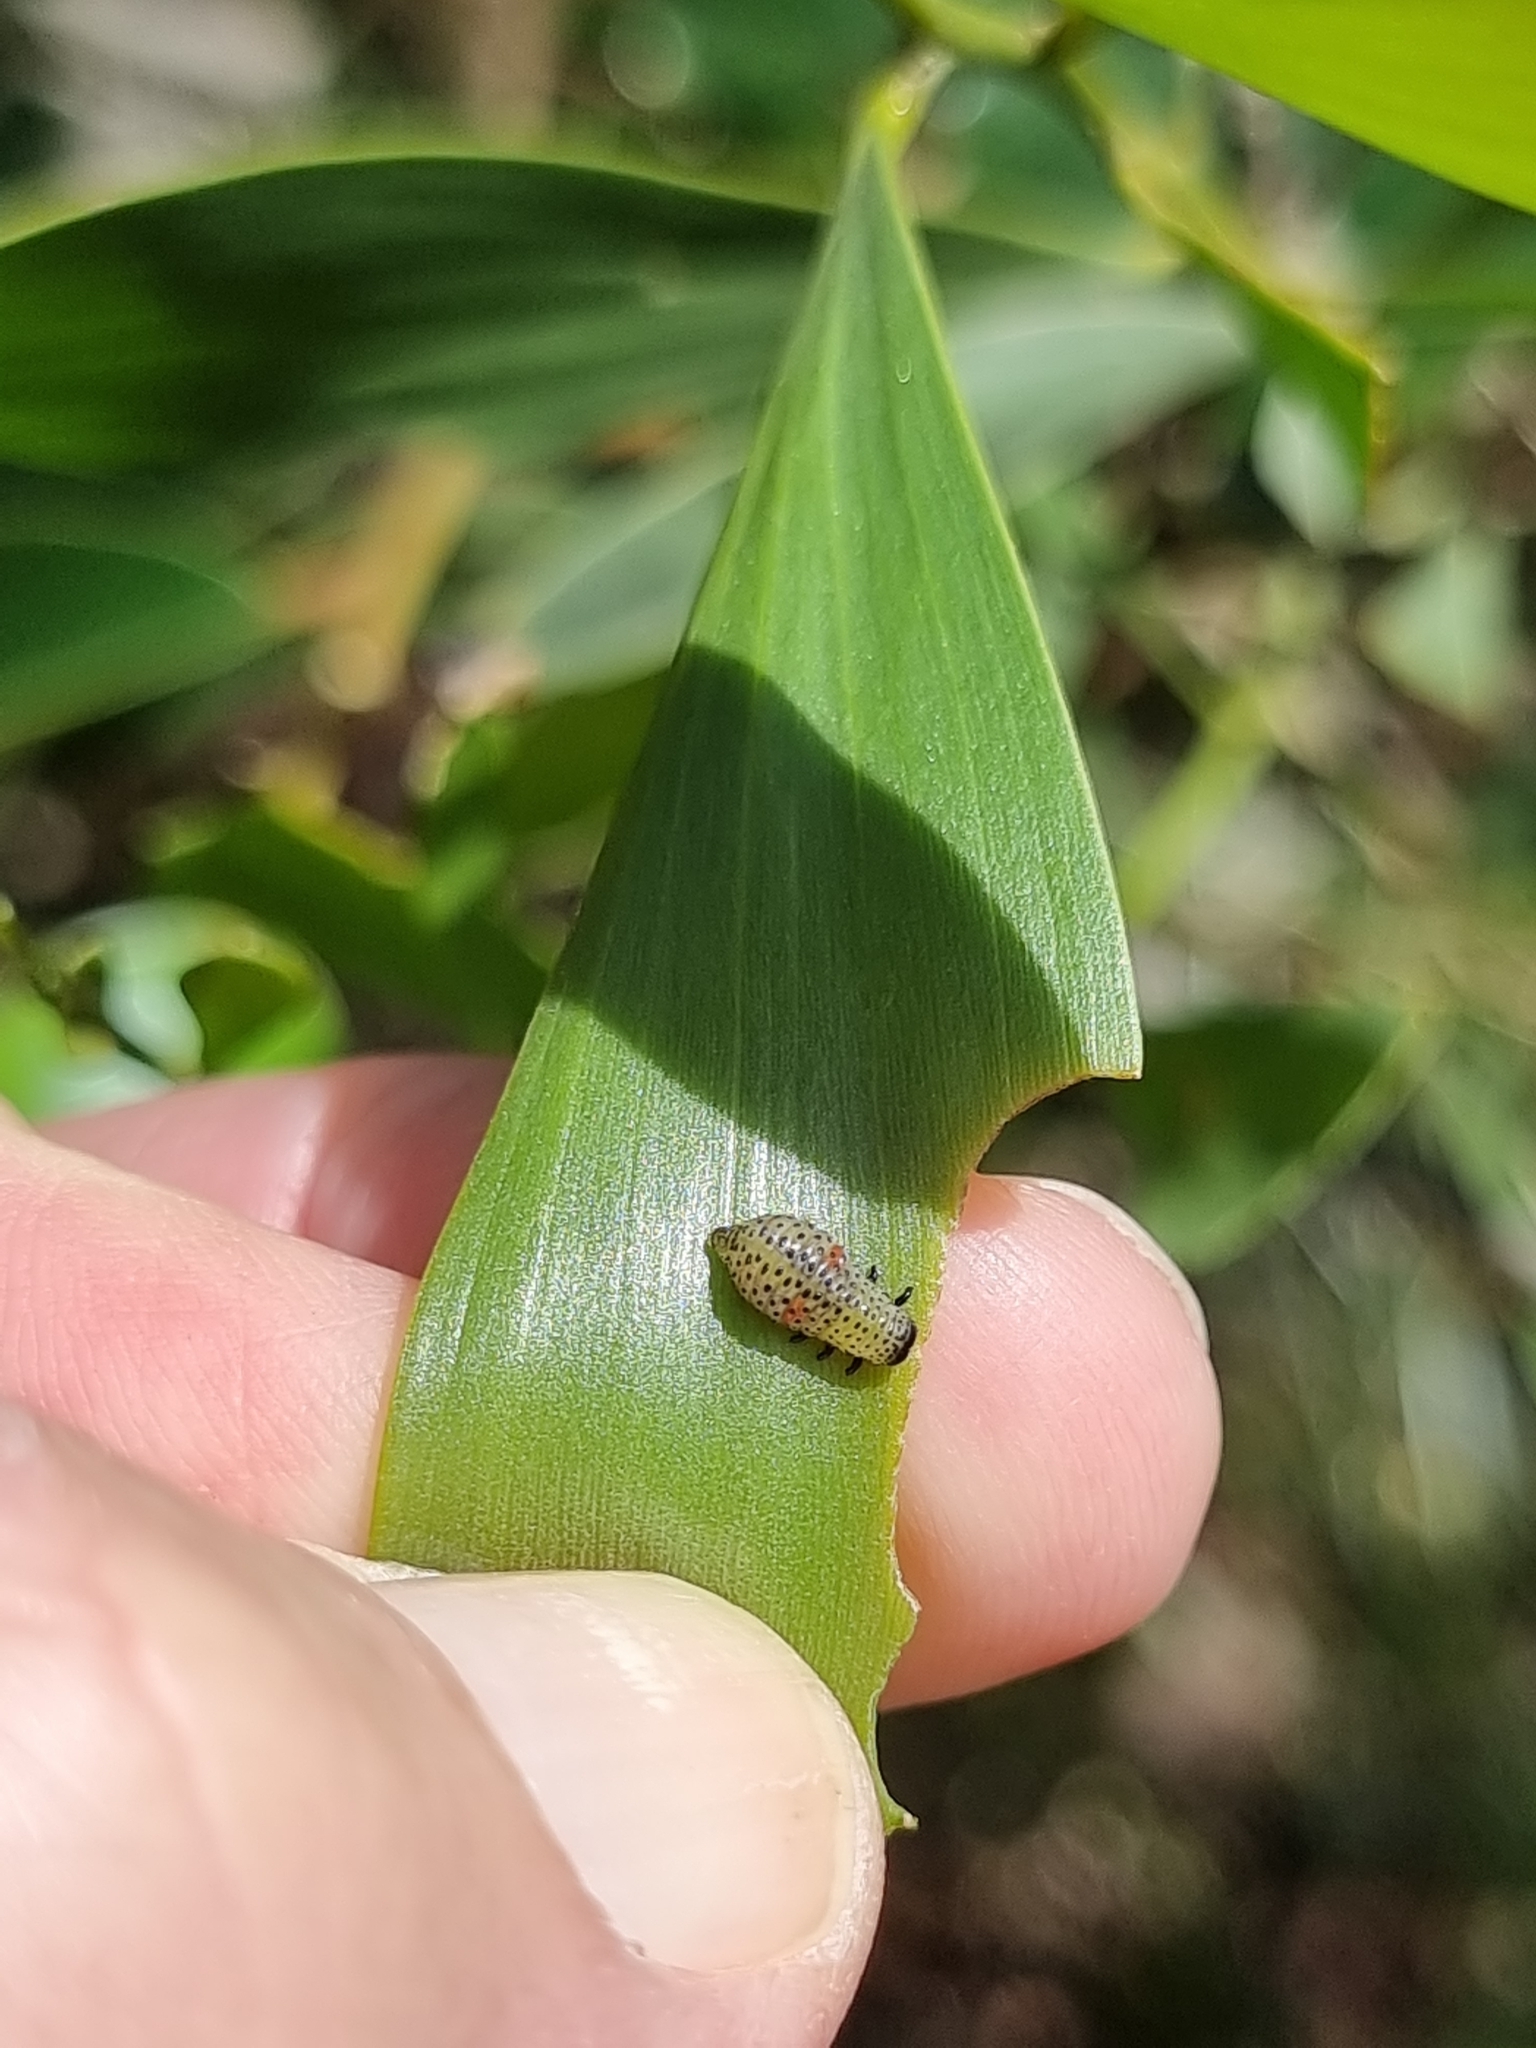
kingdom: Animalia
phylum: Arthropoda
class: Insecta
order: Coleoptera
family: Chrysomelidae
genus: Dicranosterna
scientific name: Dicranosterna
